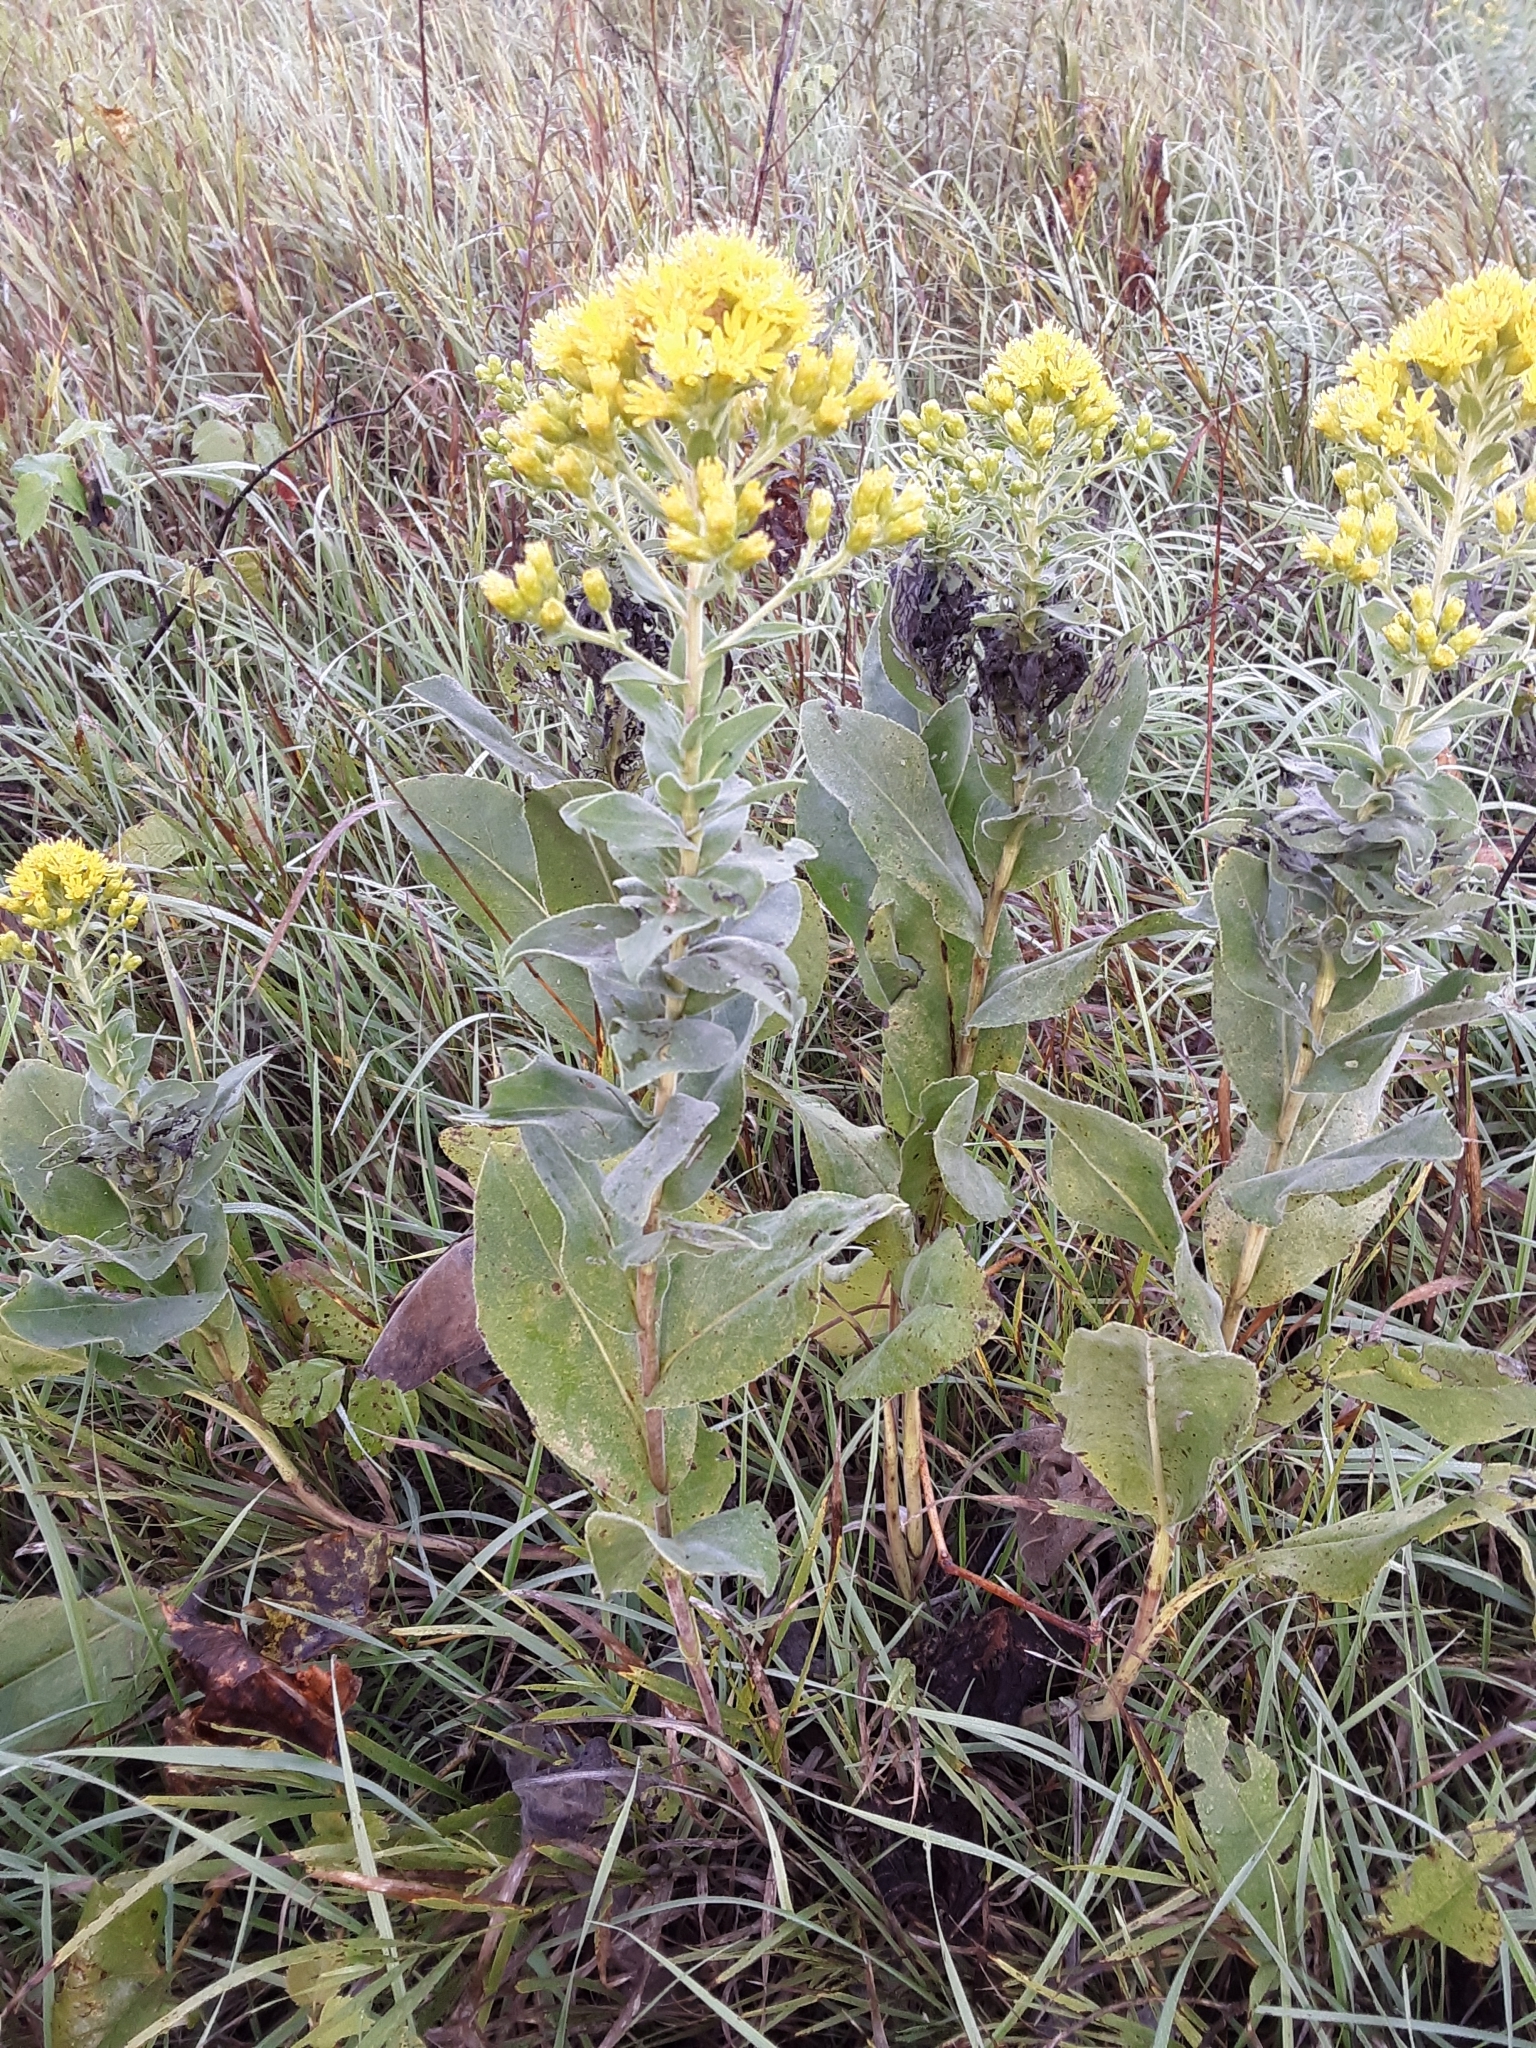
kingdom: Plantae
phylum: Tracheophyta
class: Magnoliopsida
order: Asterales
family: Asteraceae
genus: Solidago
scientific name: Solidago rigida
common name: Rigid goldenrod
